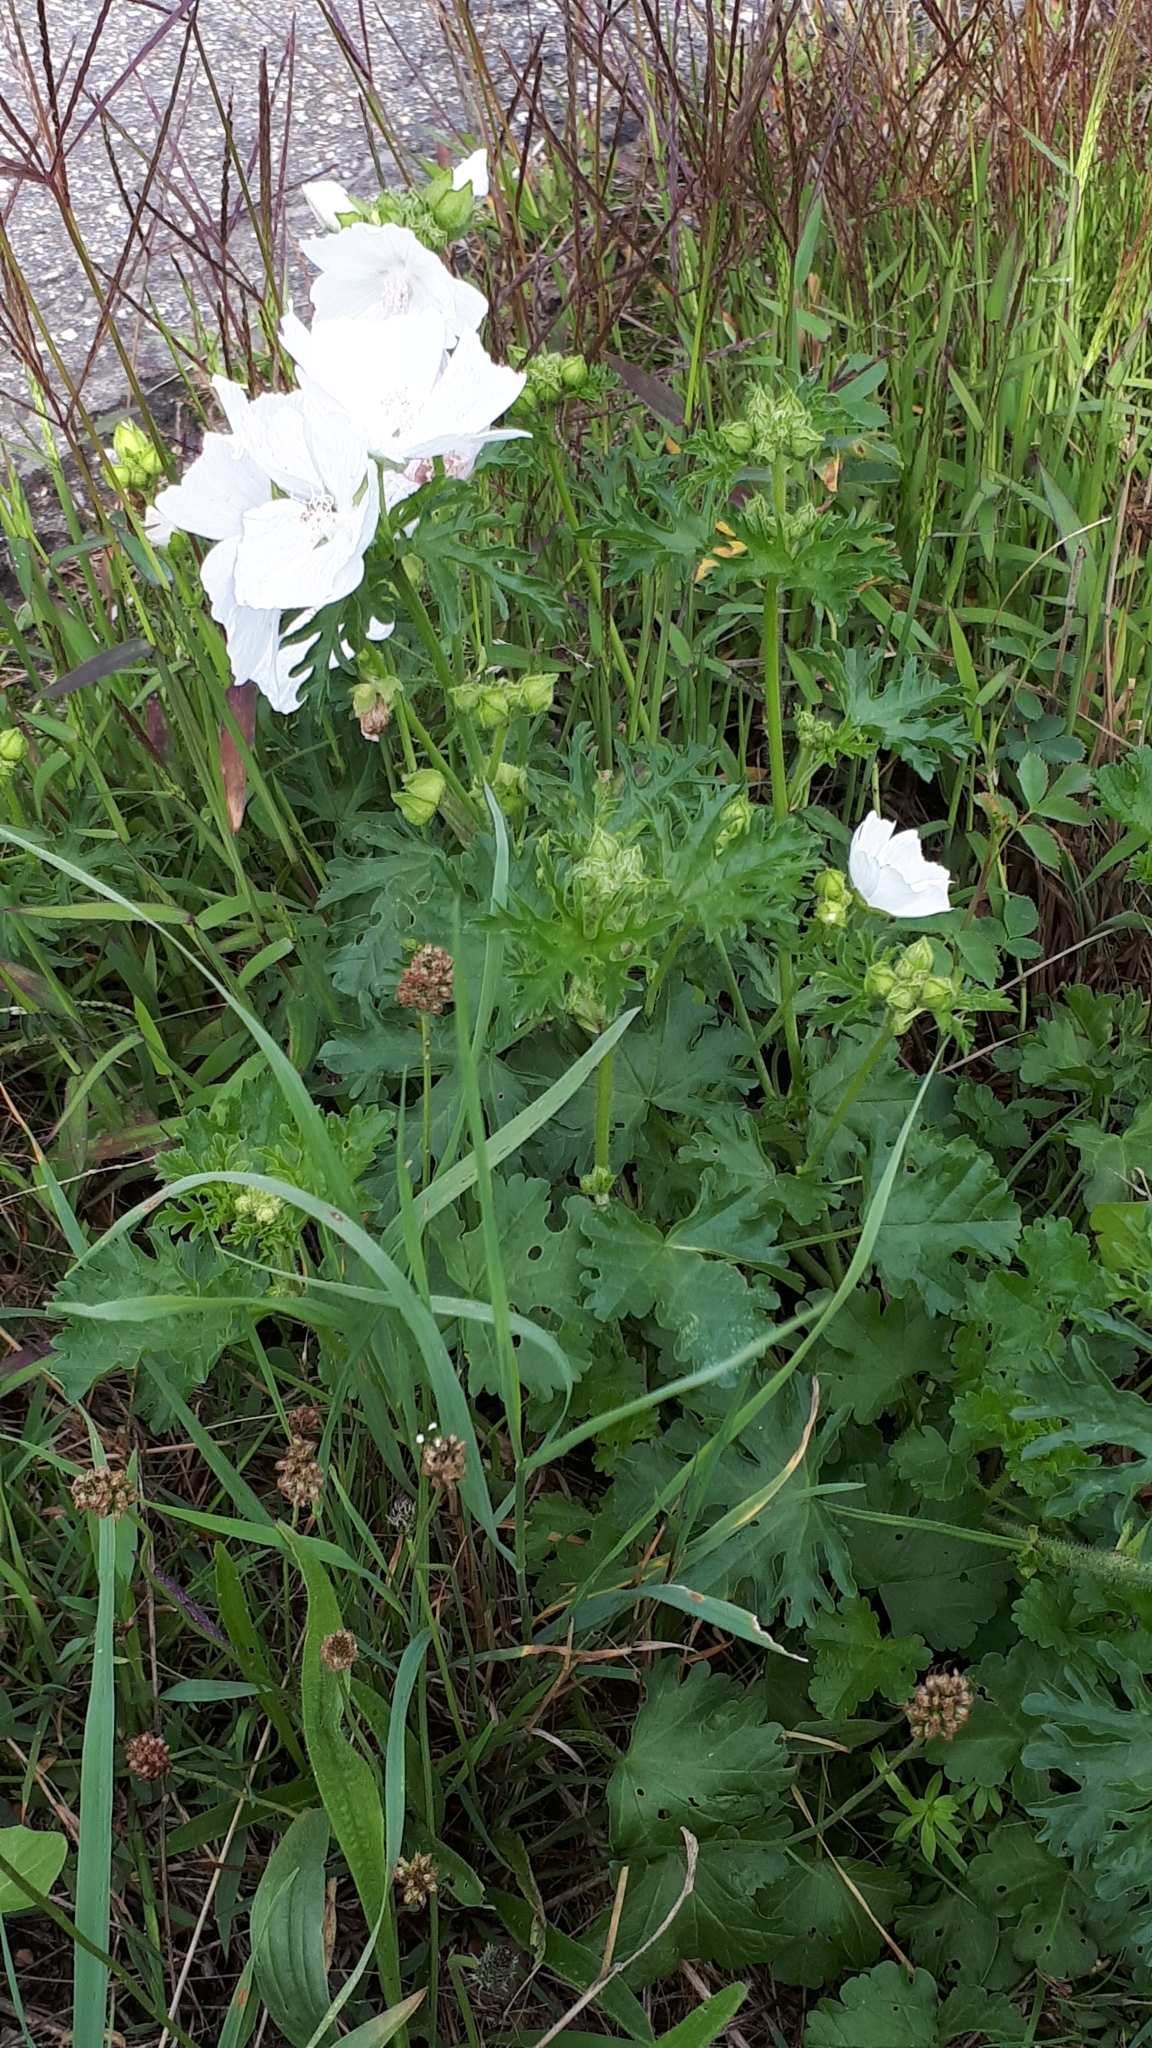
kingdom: Plantae
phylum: Tracheophyta
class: Magnoliopsida
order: Malvales
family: Malvaceae
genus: Malva
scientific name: Malva moschata
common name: Musk mallow
